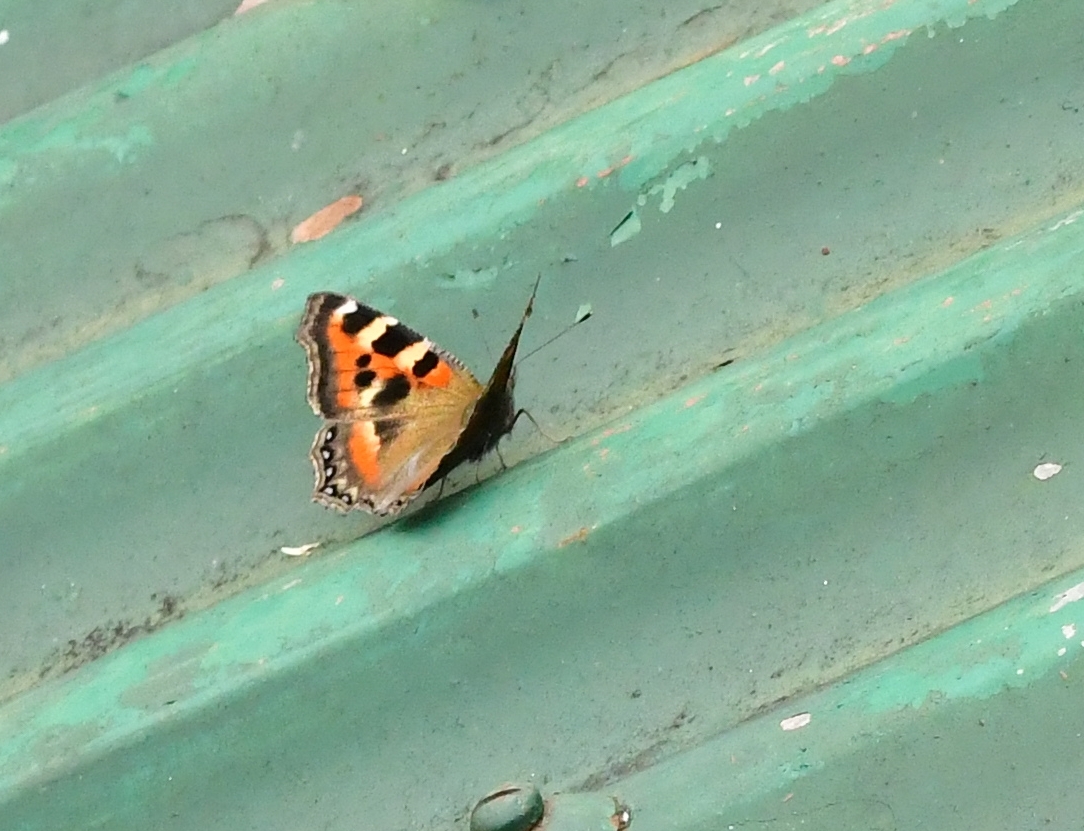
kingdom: Animalia
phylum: Arthropoda
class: Insecta
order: Lepidoptera
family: Nymphalidae
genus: Aglais
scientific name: Aglais caschmirensis
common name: Indian tortoiseshell
